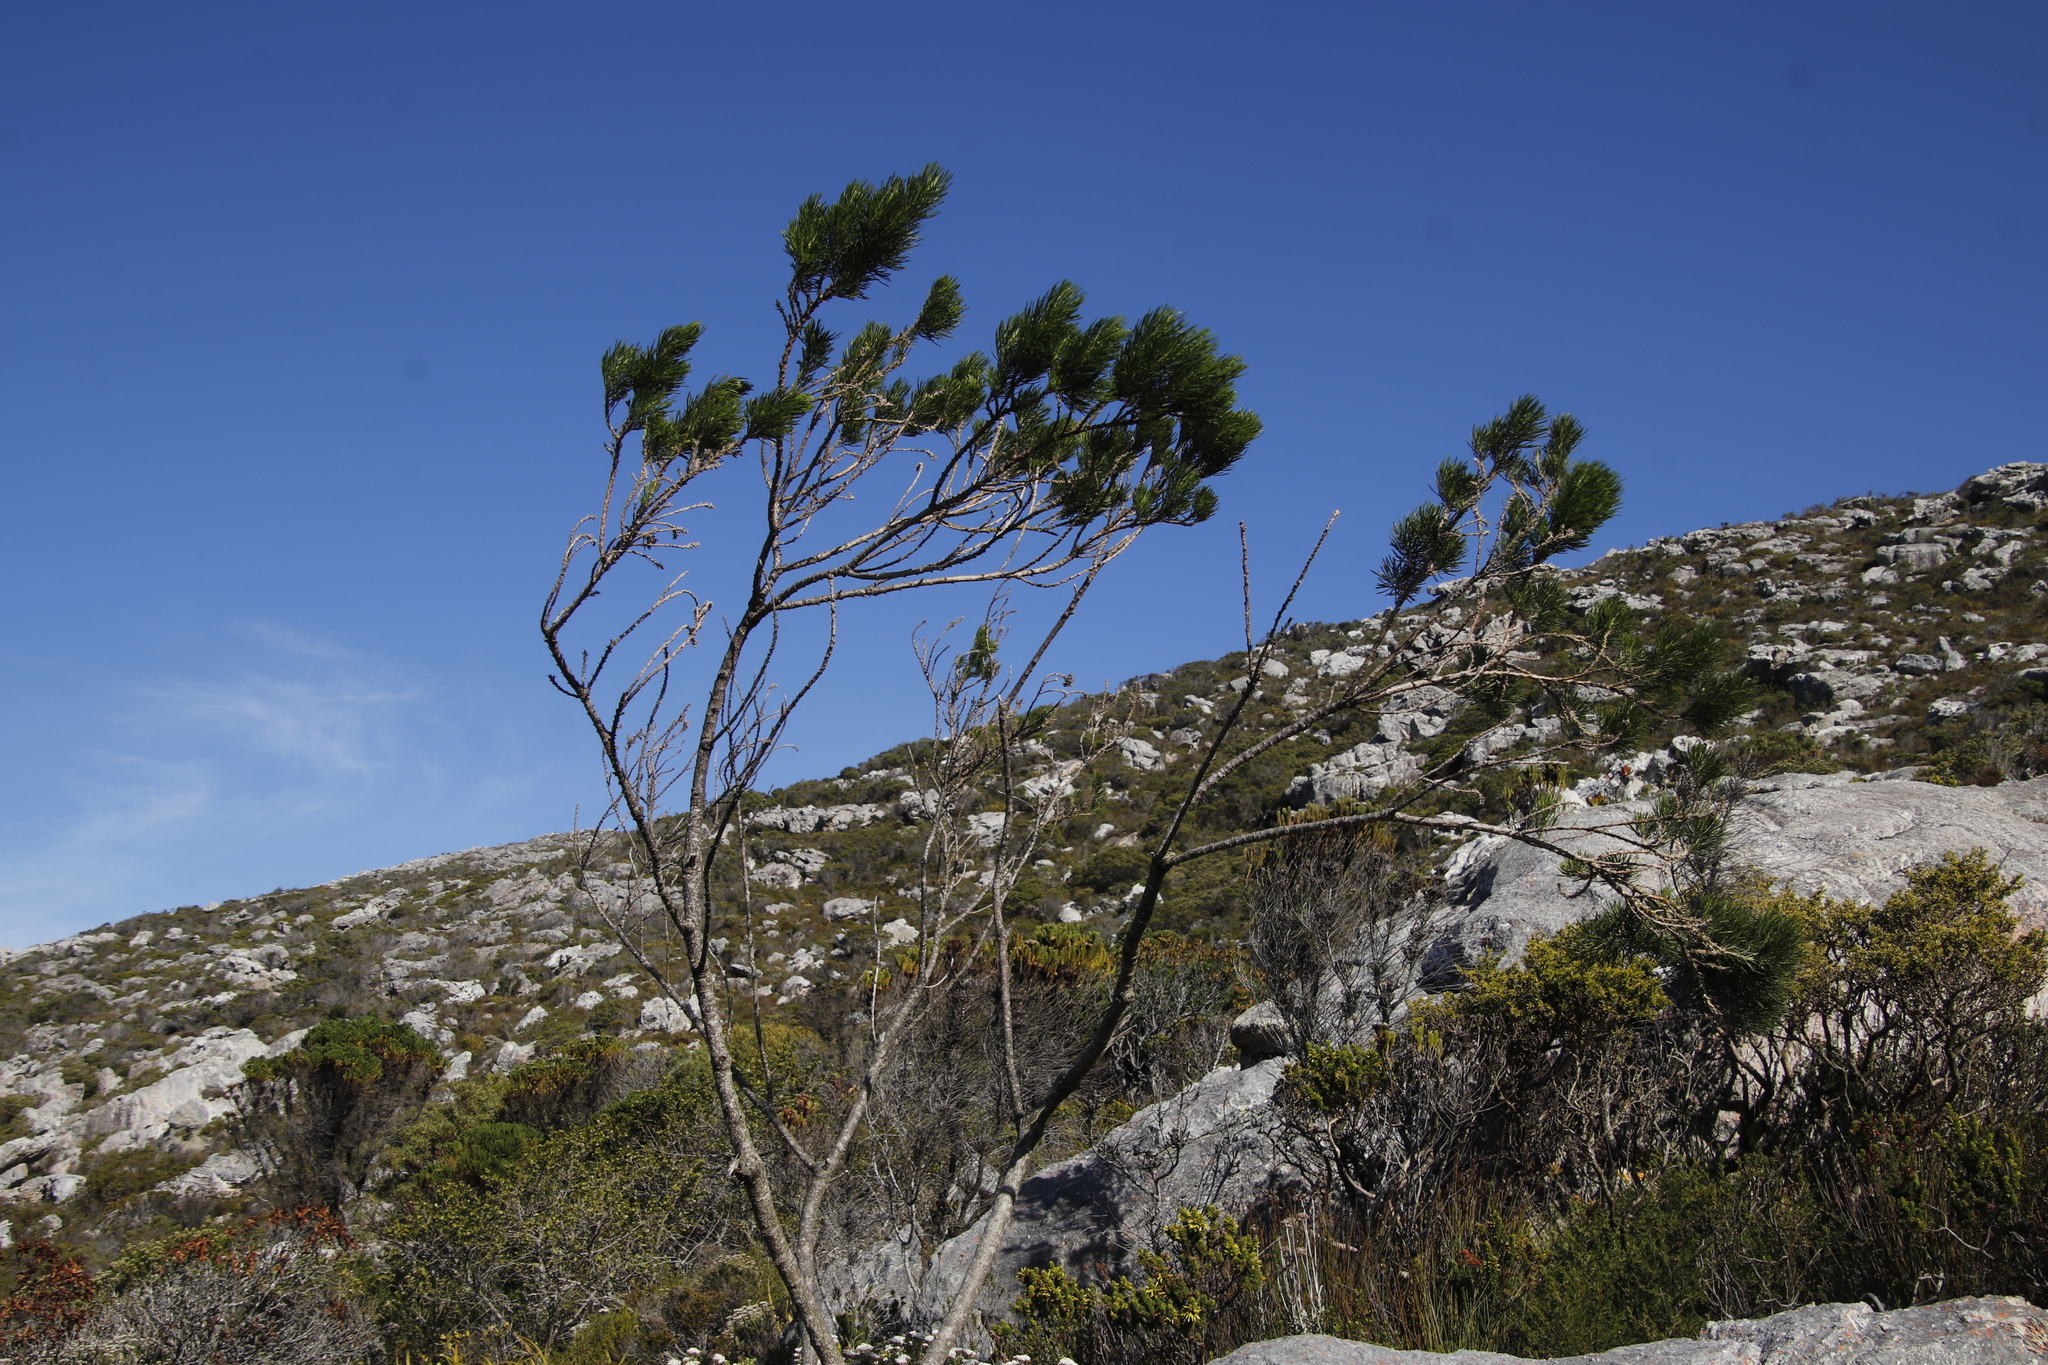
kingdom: Plantae
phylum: Tracheophyta
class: Magnoliopsida
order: Fabales
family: Fabaceae
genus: Psoralea
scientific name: Psoralea pinnata
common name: African scurfpea
